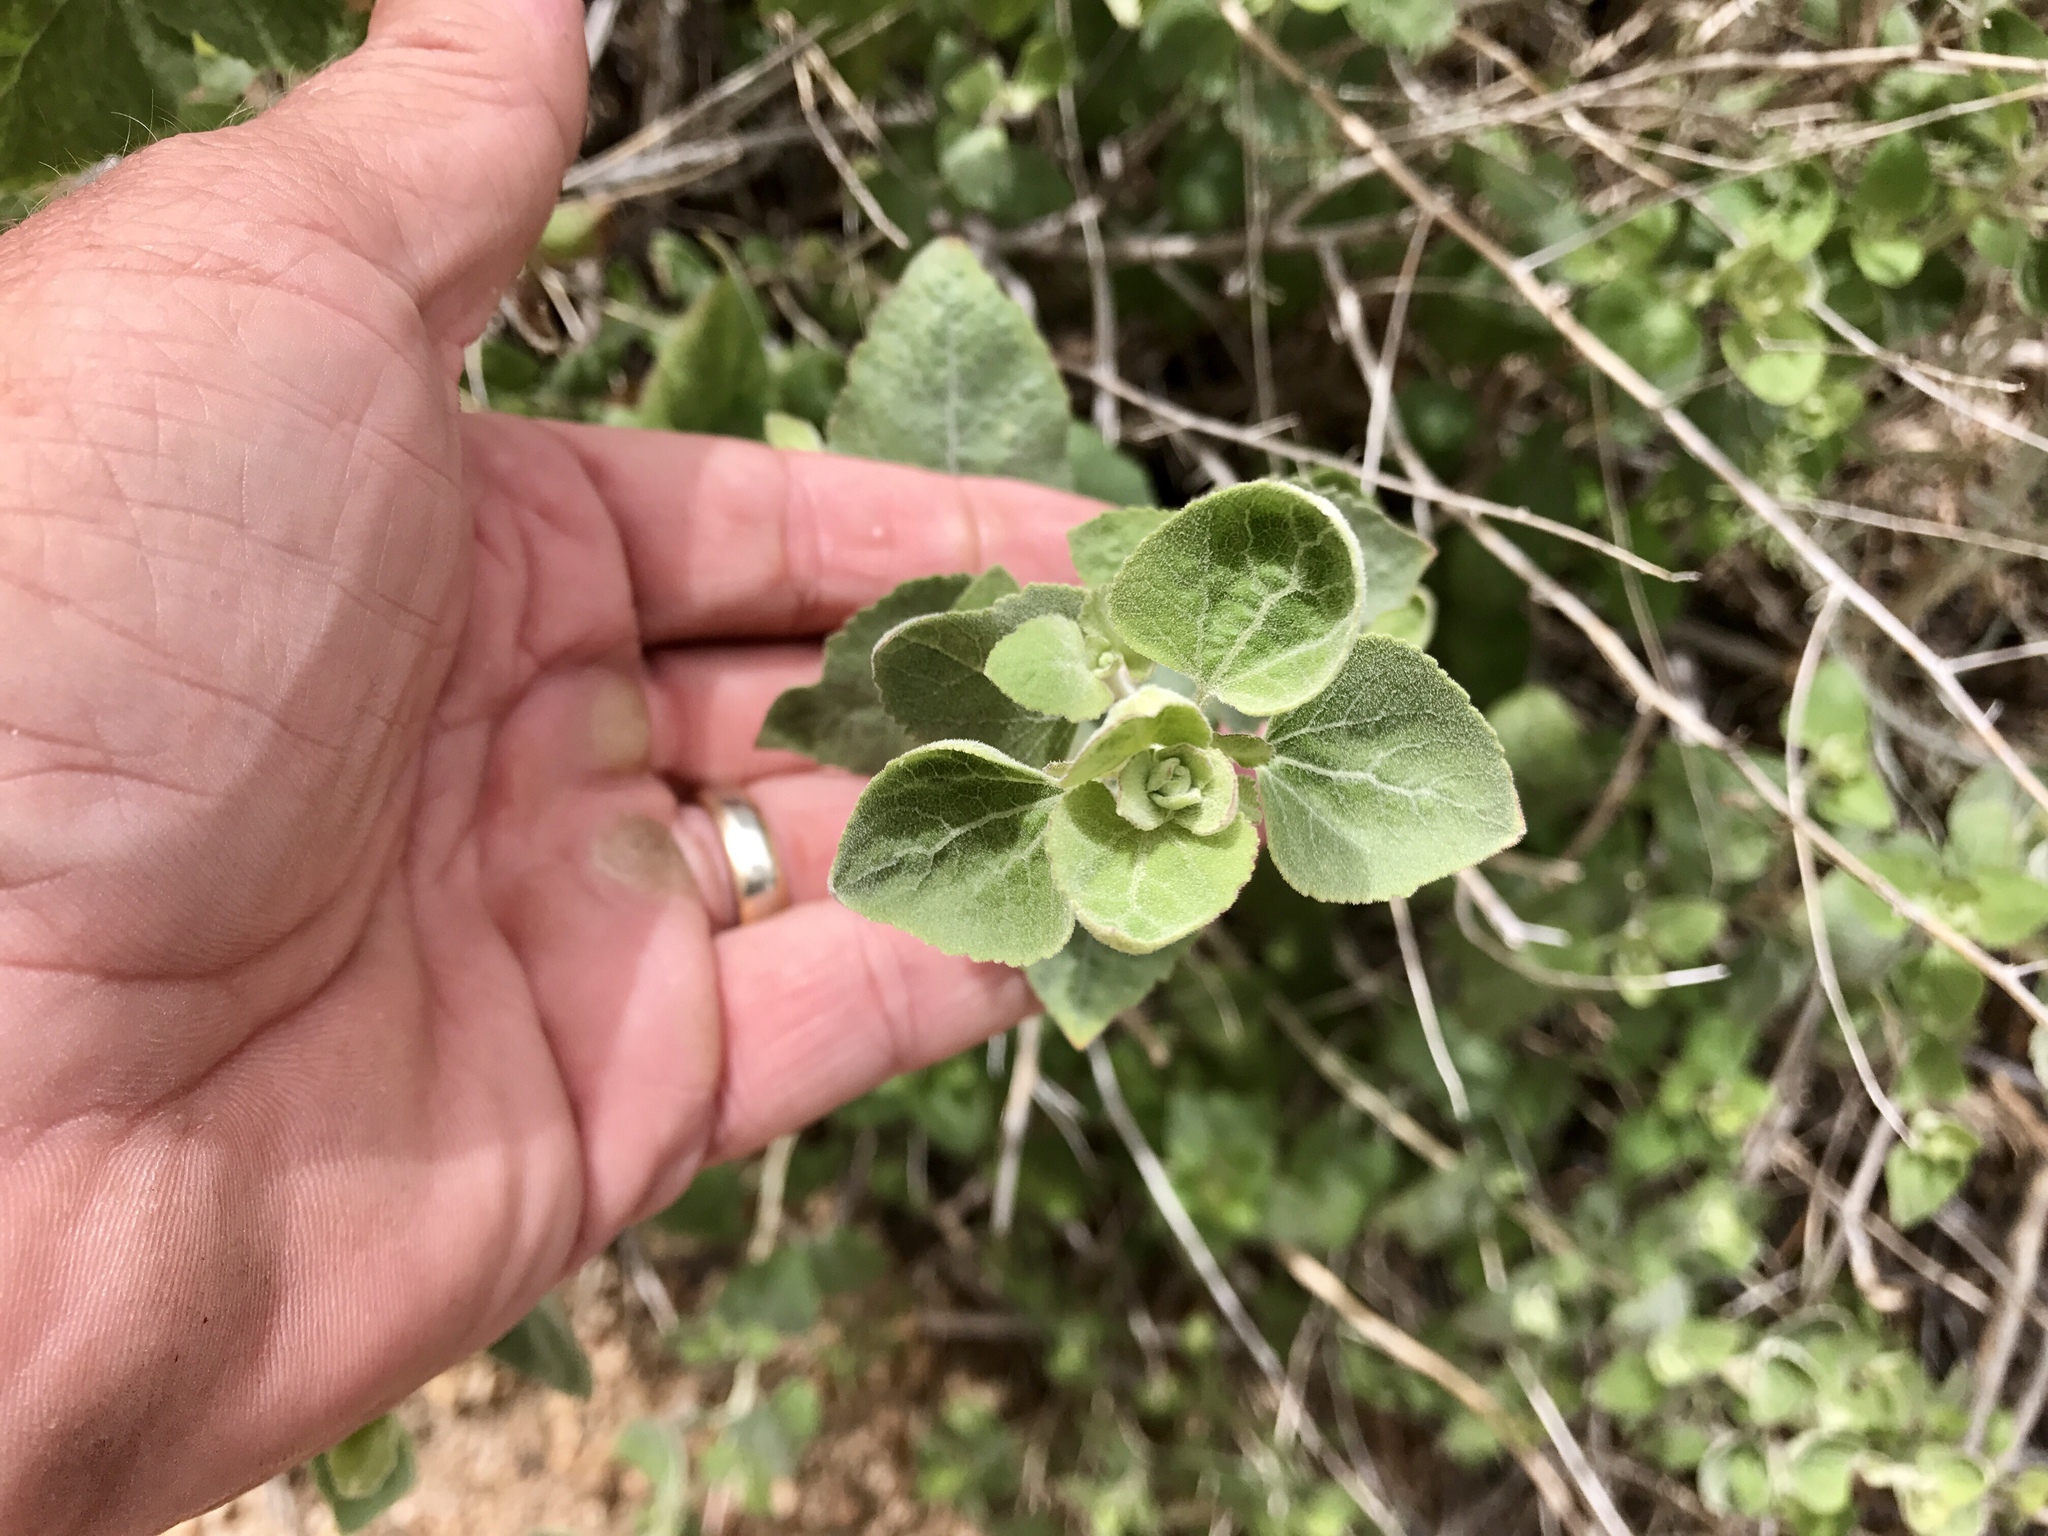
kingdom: Plantae
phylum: Tracheophyta
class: Magnoliopsida
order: Asterales
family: Asteraceae
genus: Brickellia
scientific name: Brickellia californica
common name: California brickellbush
